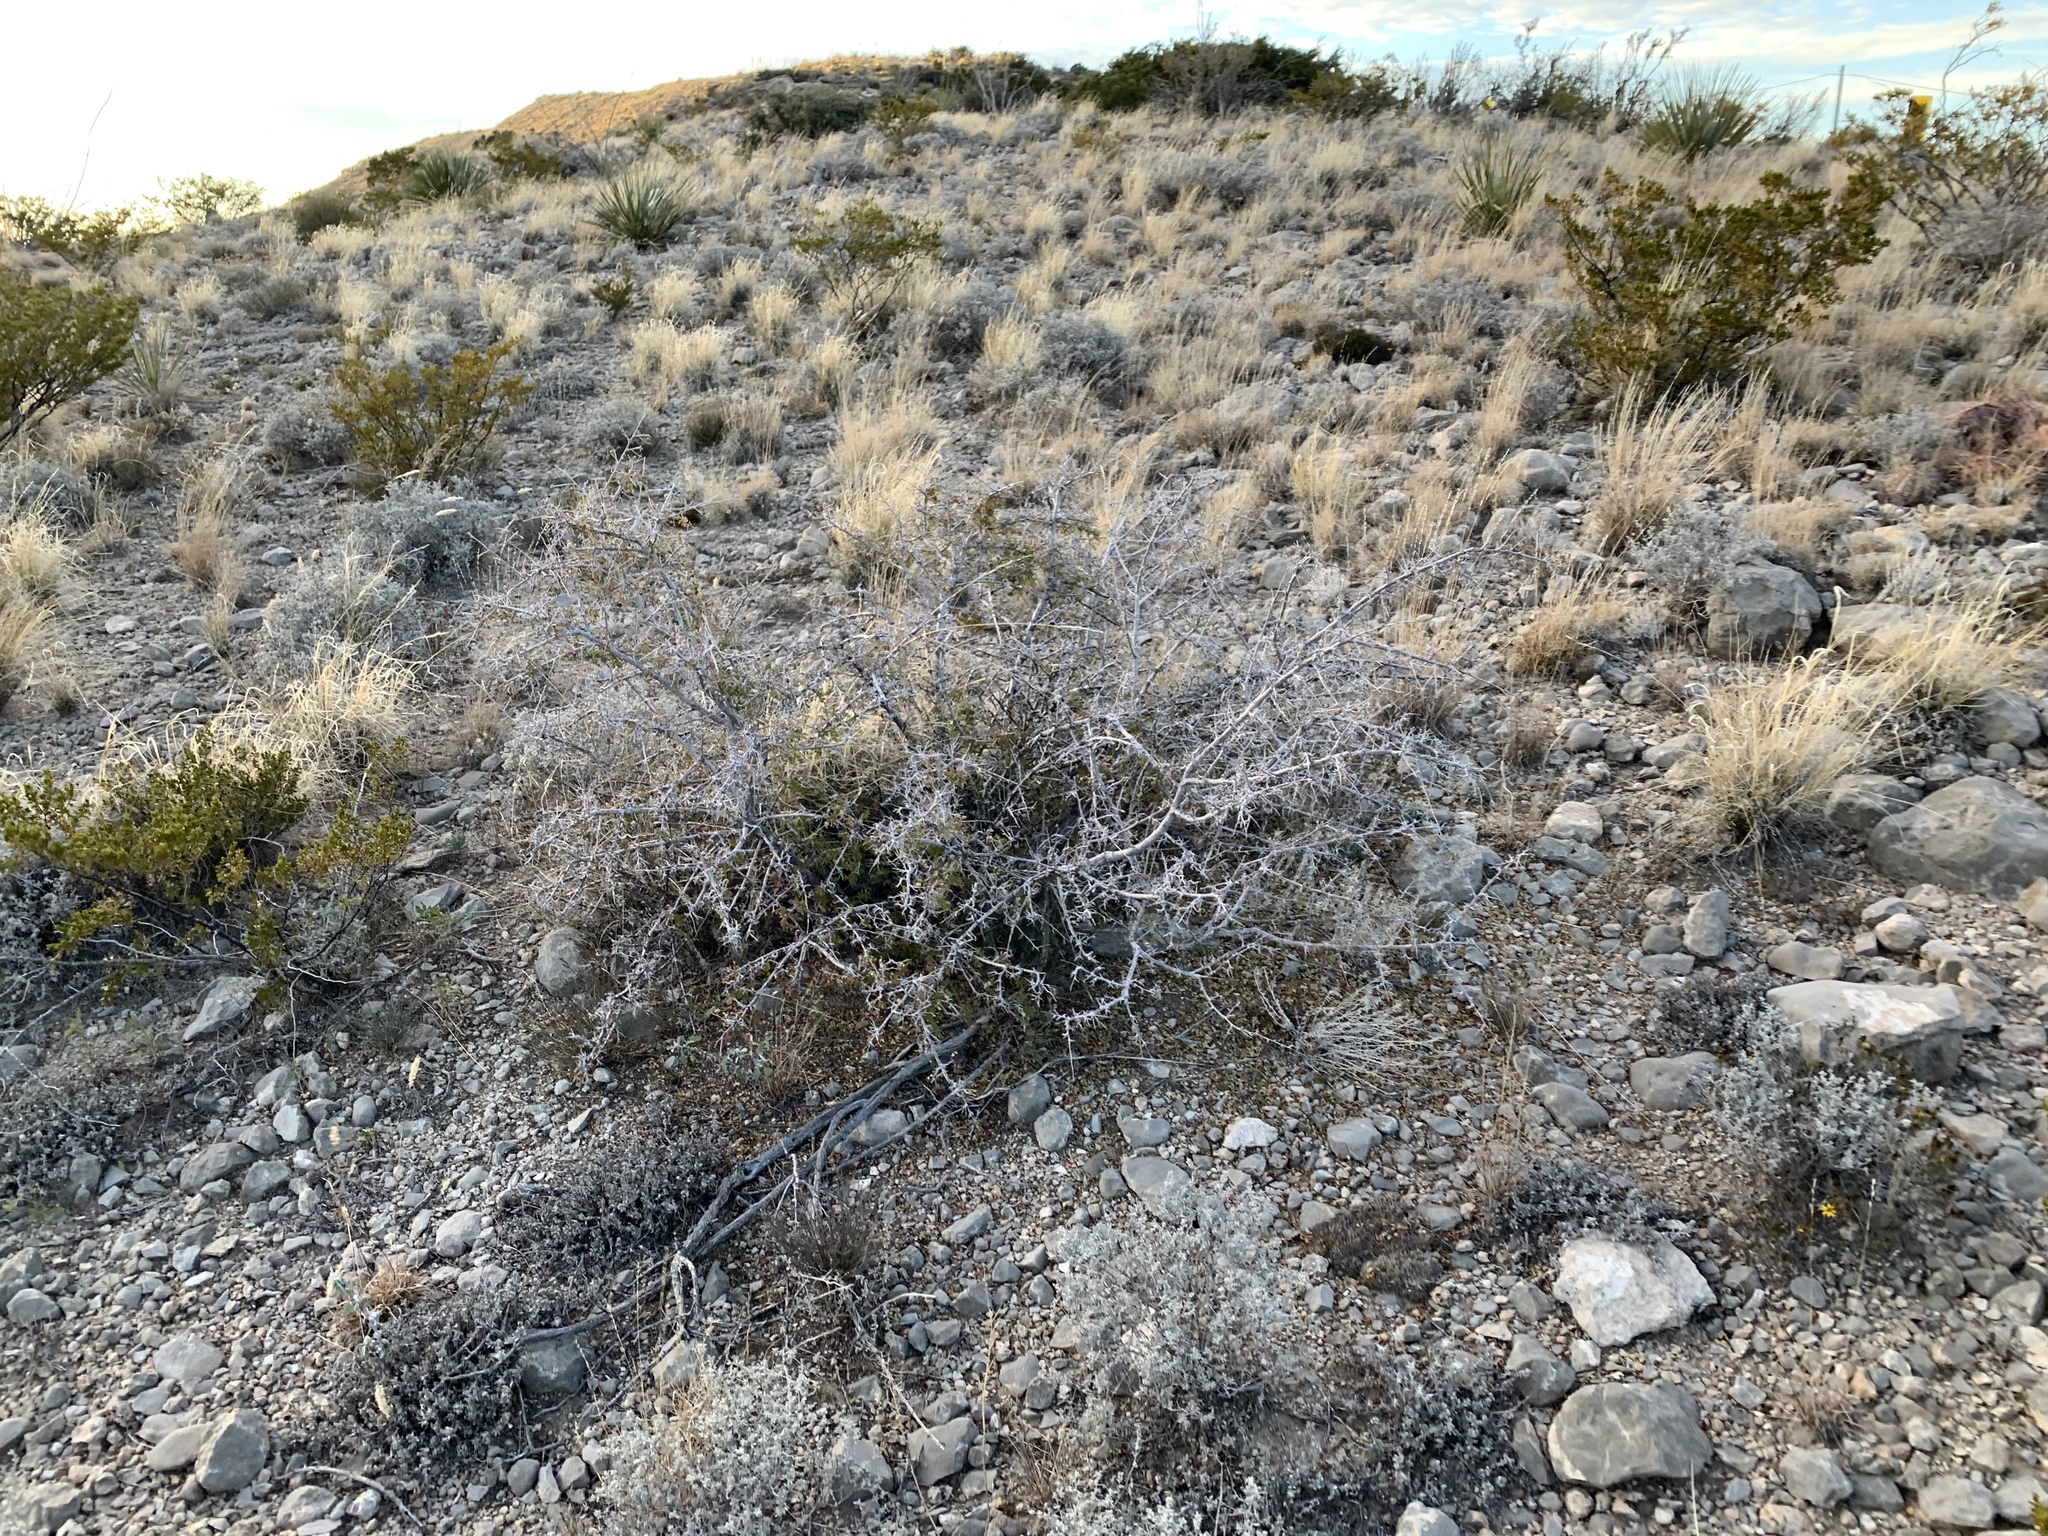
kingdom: Plantae
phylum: Tracheophyta
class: Magnoliopsida
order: Sapindales
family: Anacardiaceae
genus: Rhus
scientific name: Rhus microphylla
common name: Desert sumac
